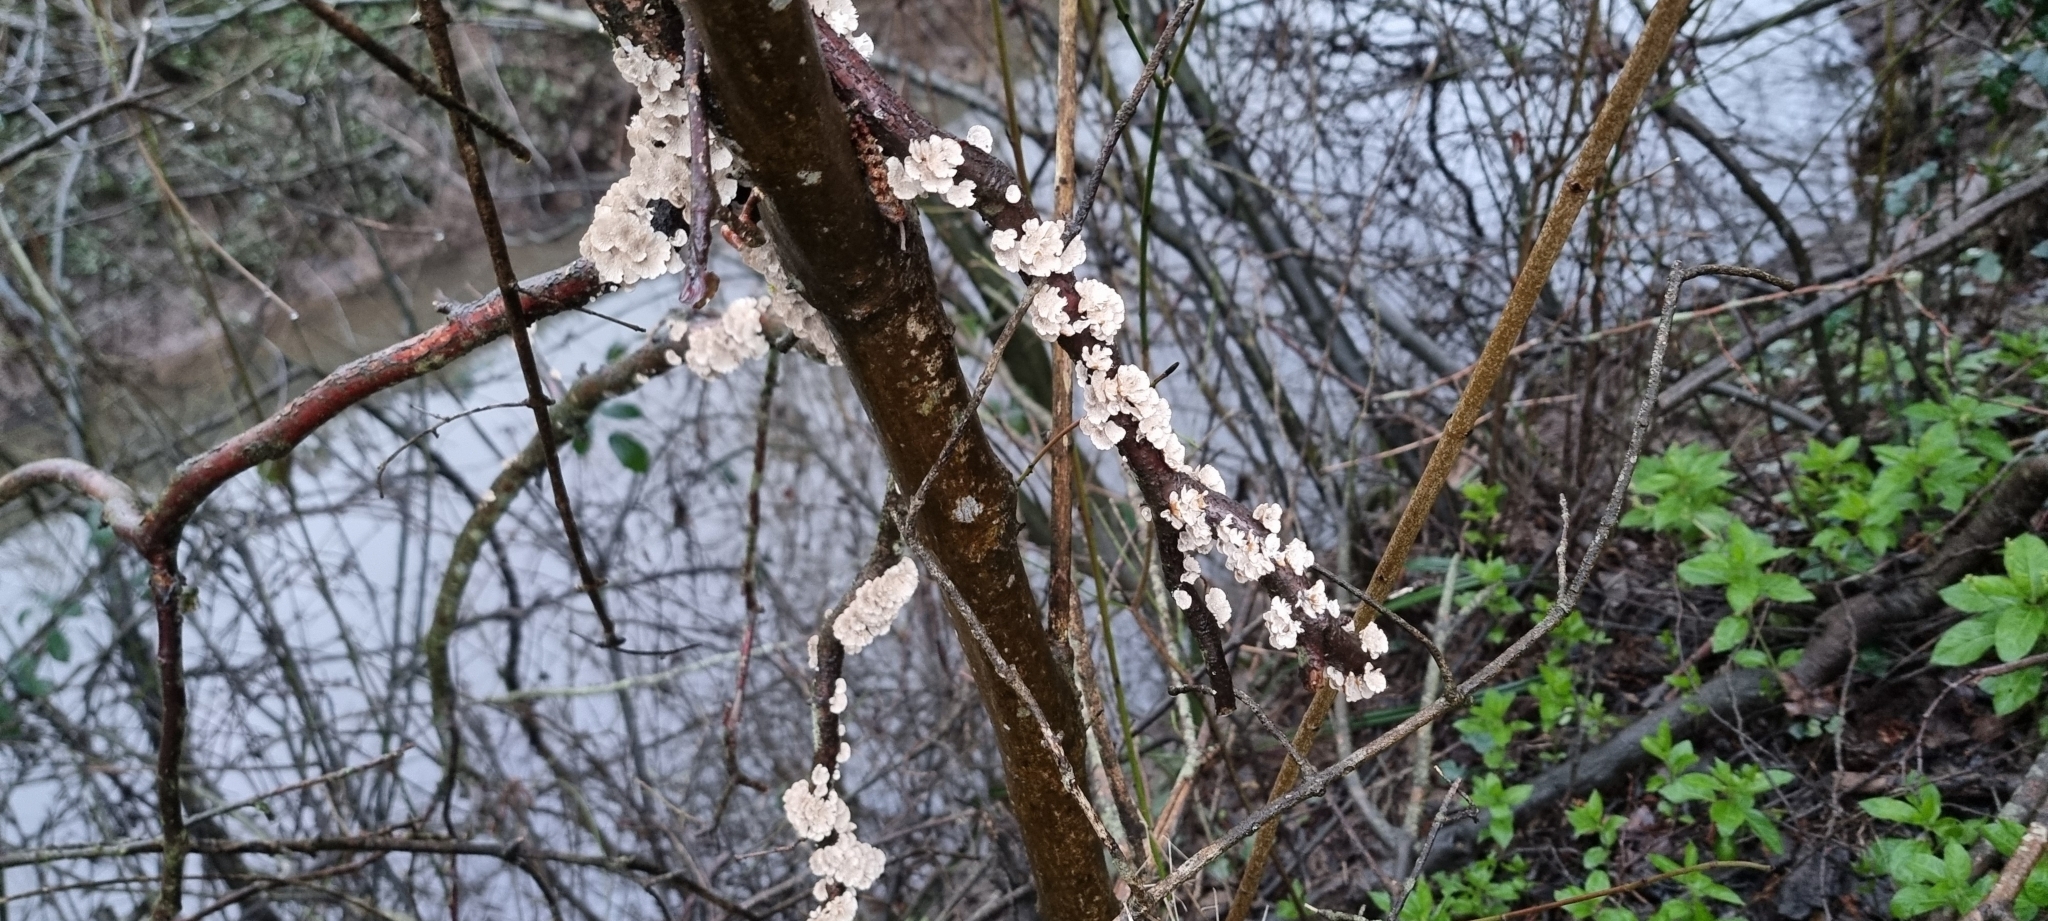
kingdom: Fungi
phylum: Basidiomycota
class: Agaricomycetes
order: Amylocorticiales
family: Amylocorticiaceae
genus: Plicaturopsis
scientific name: Plicaturopsis crispa
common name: Crimped gill
